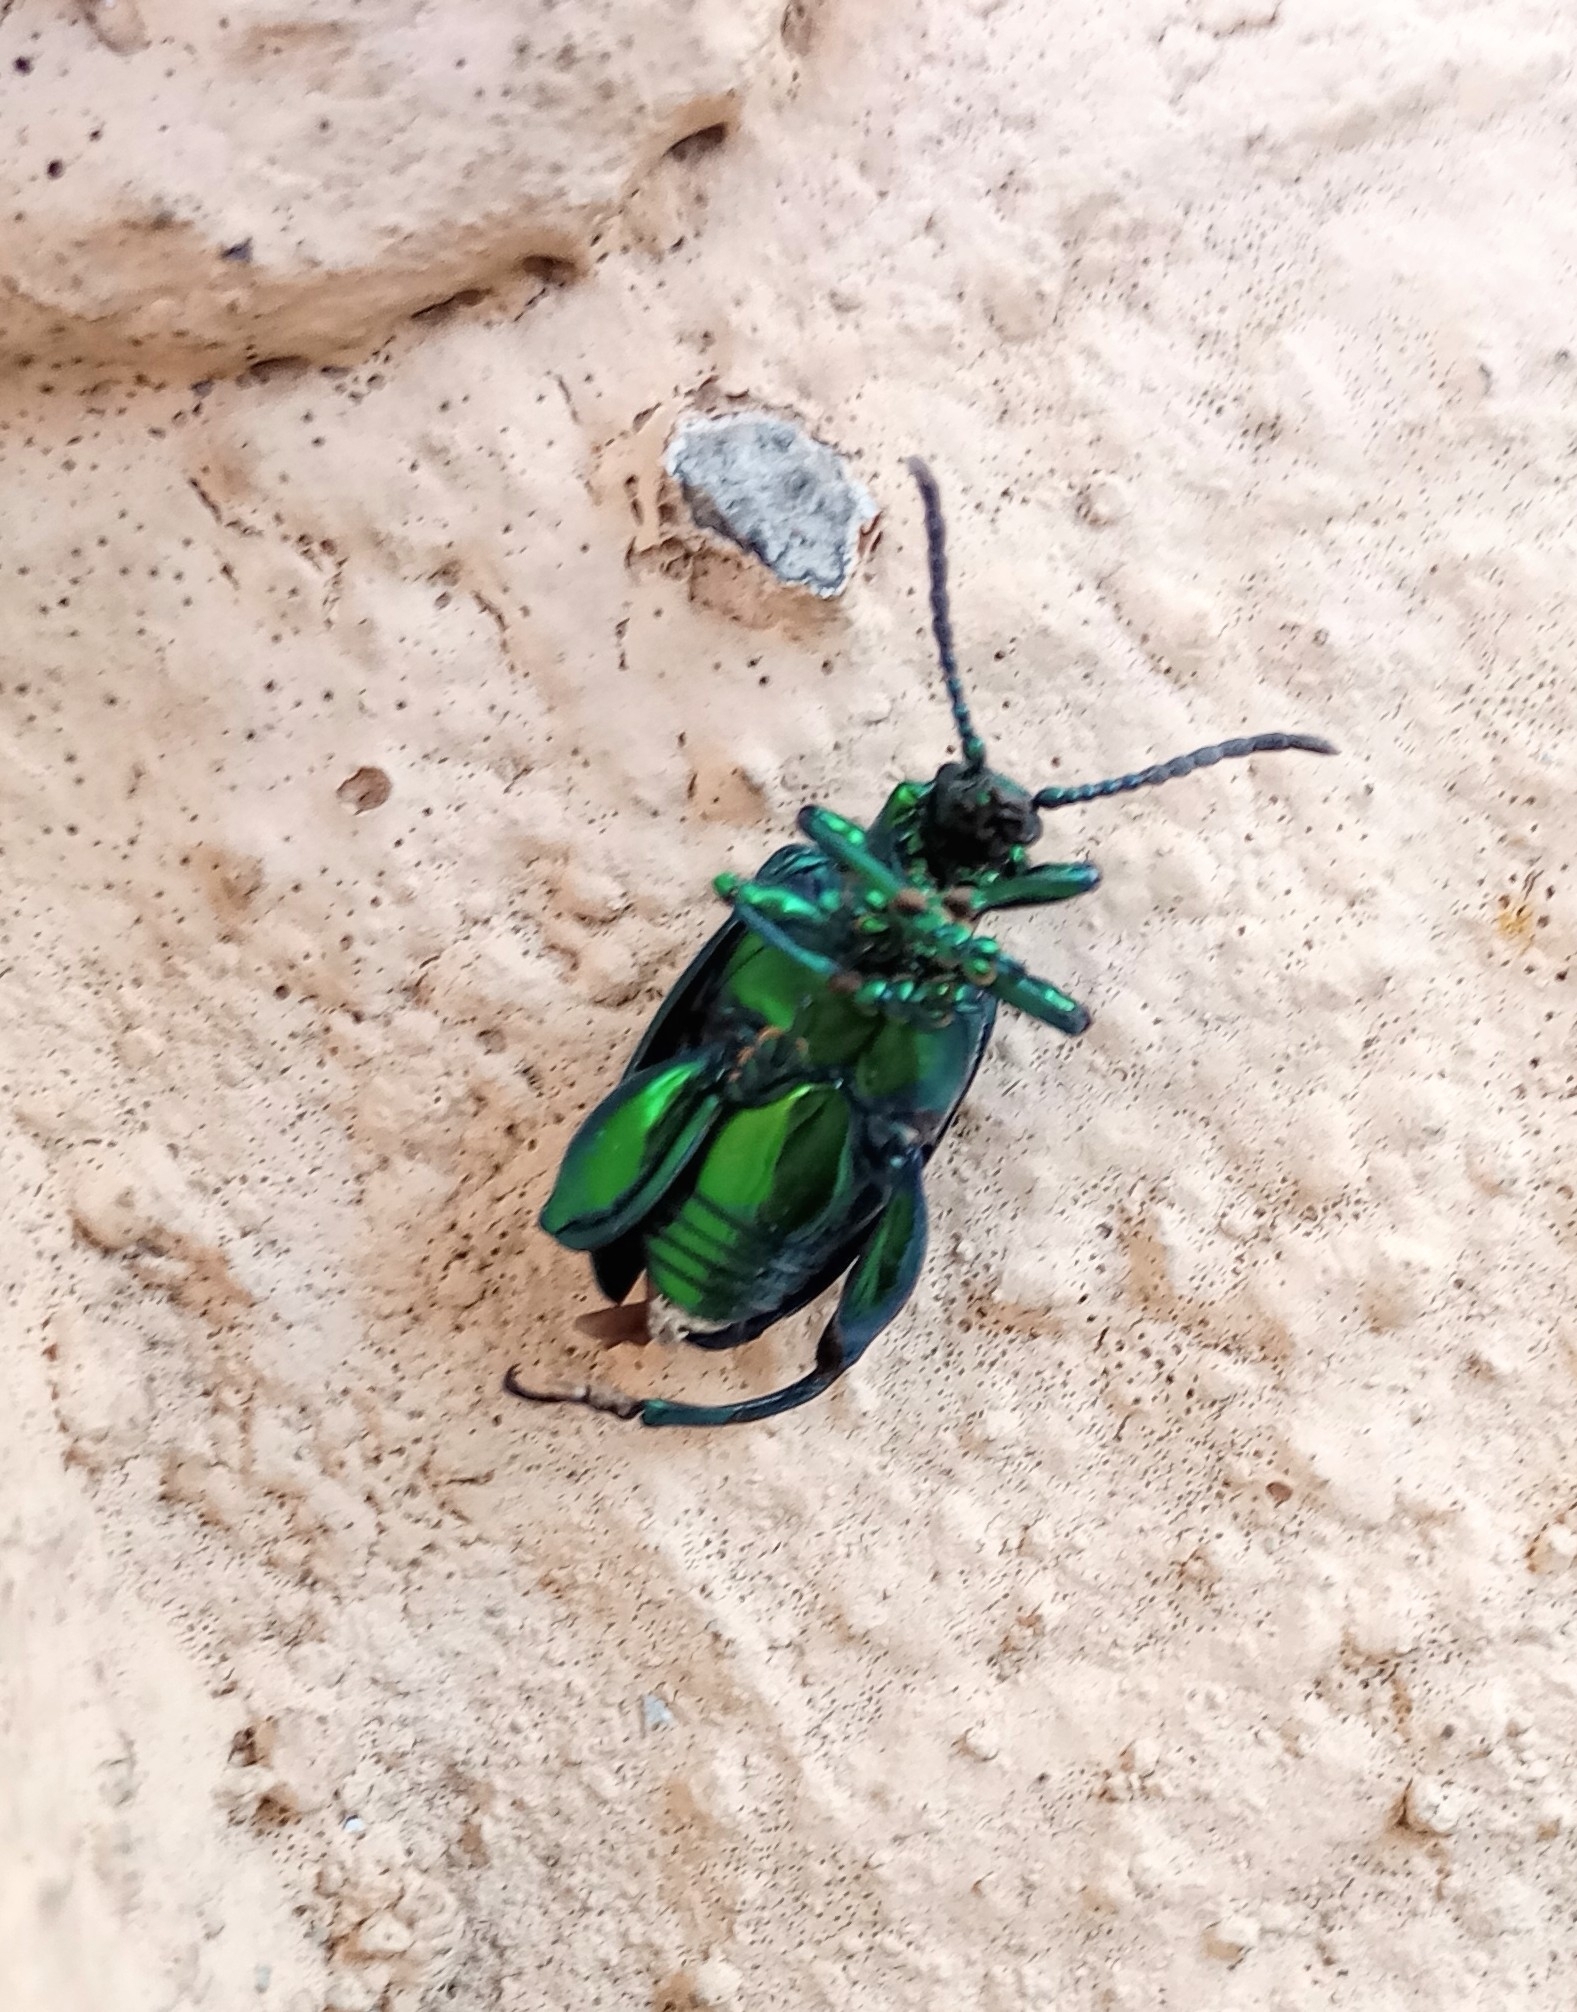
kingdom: Animalia
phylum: Arthropoda
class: Insecta
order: Coleoptera
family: Chrysomelidae
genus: Sagra
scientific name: Sagra femorata
